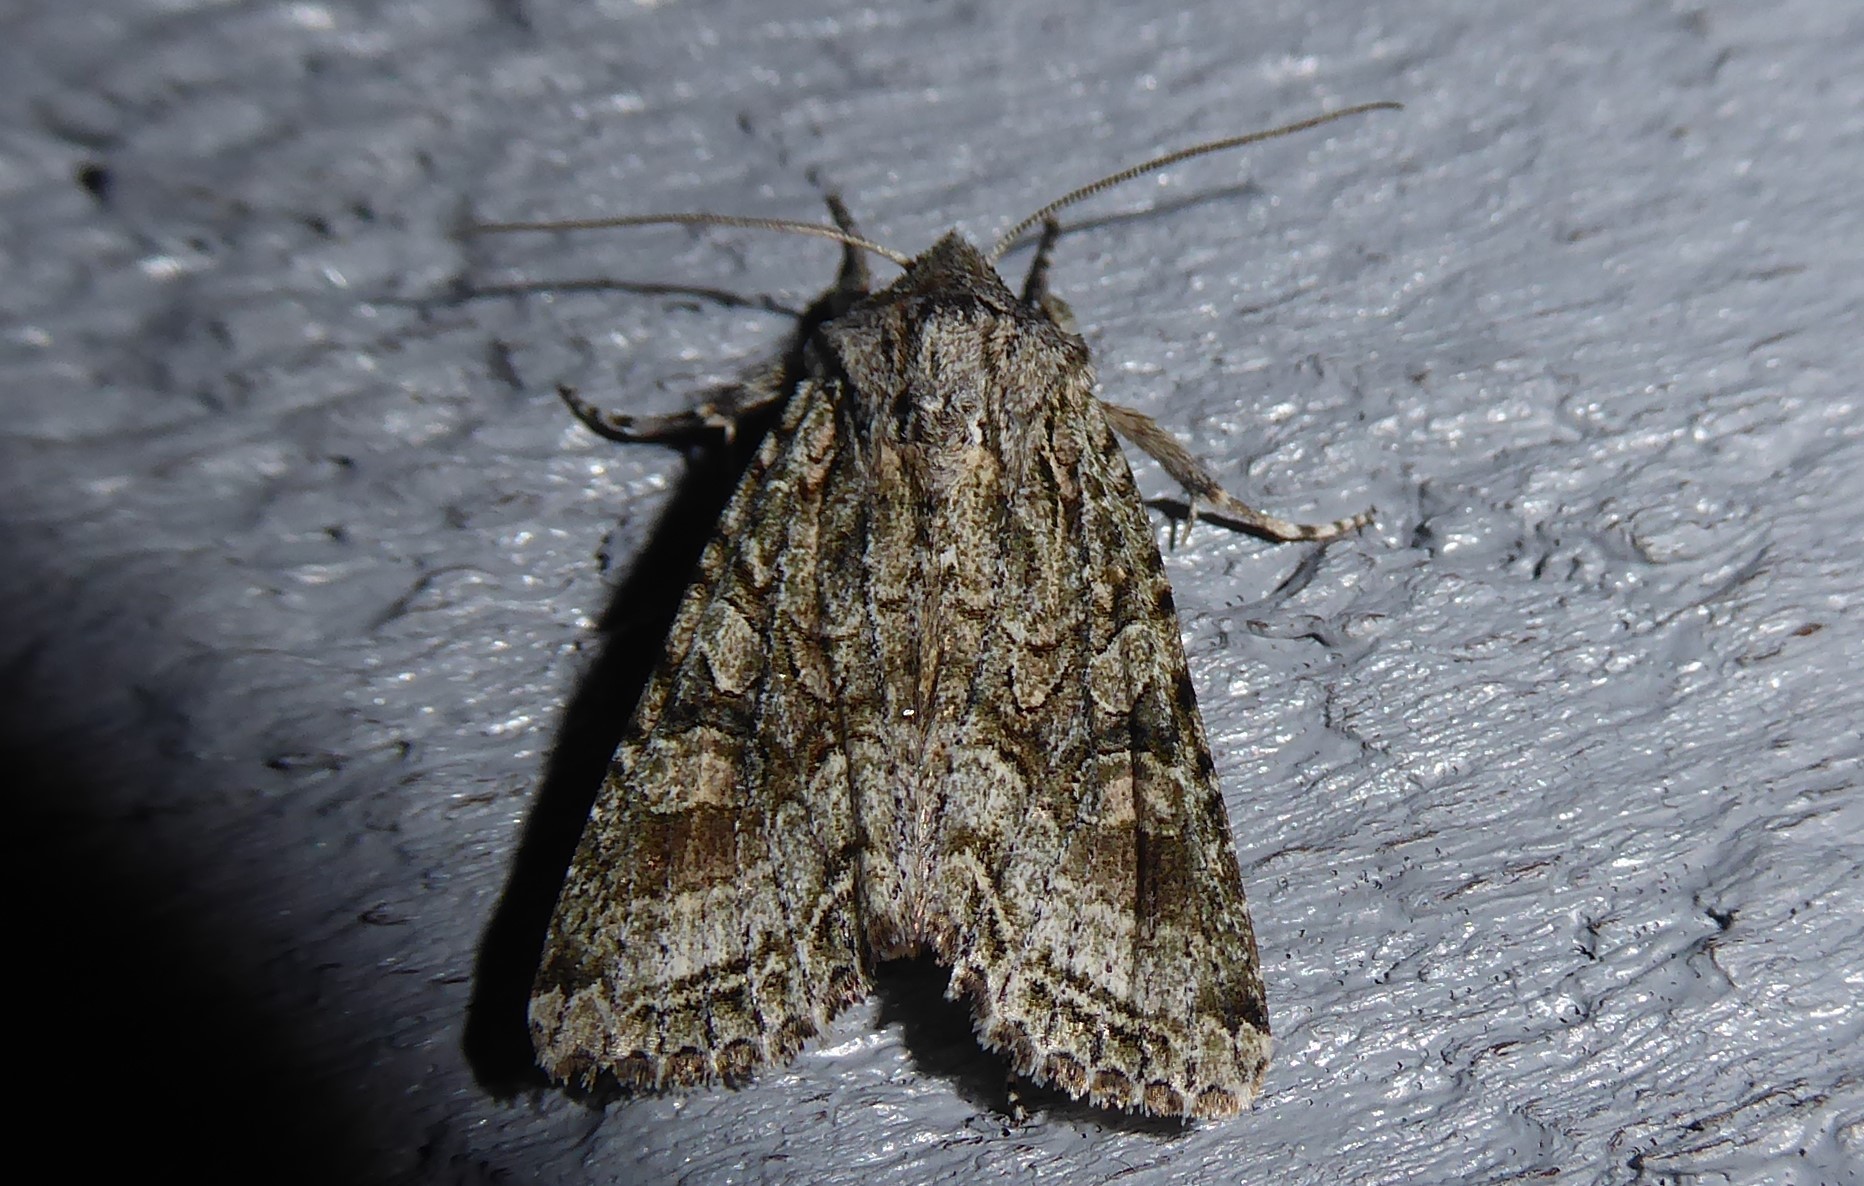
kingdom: Animalia
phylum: Arthropoda
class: Insecta
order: Lepidoptera
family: Noctuidae
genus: Ichneutica
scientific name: Ichneutica mutans
